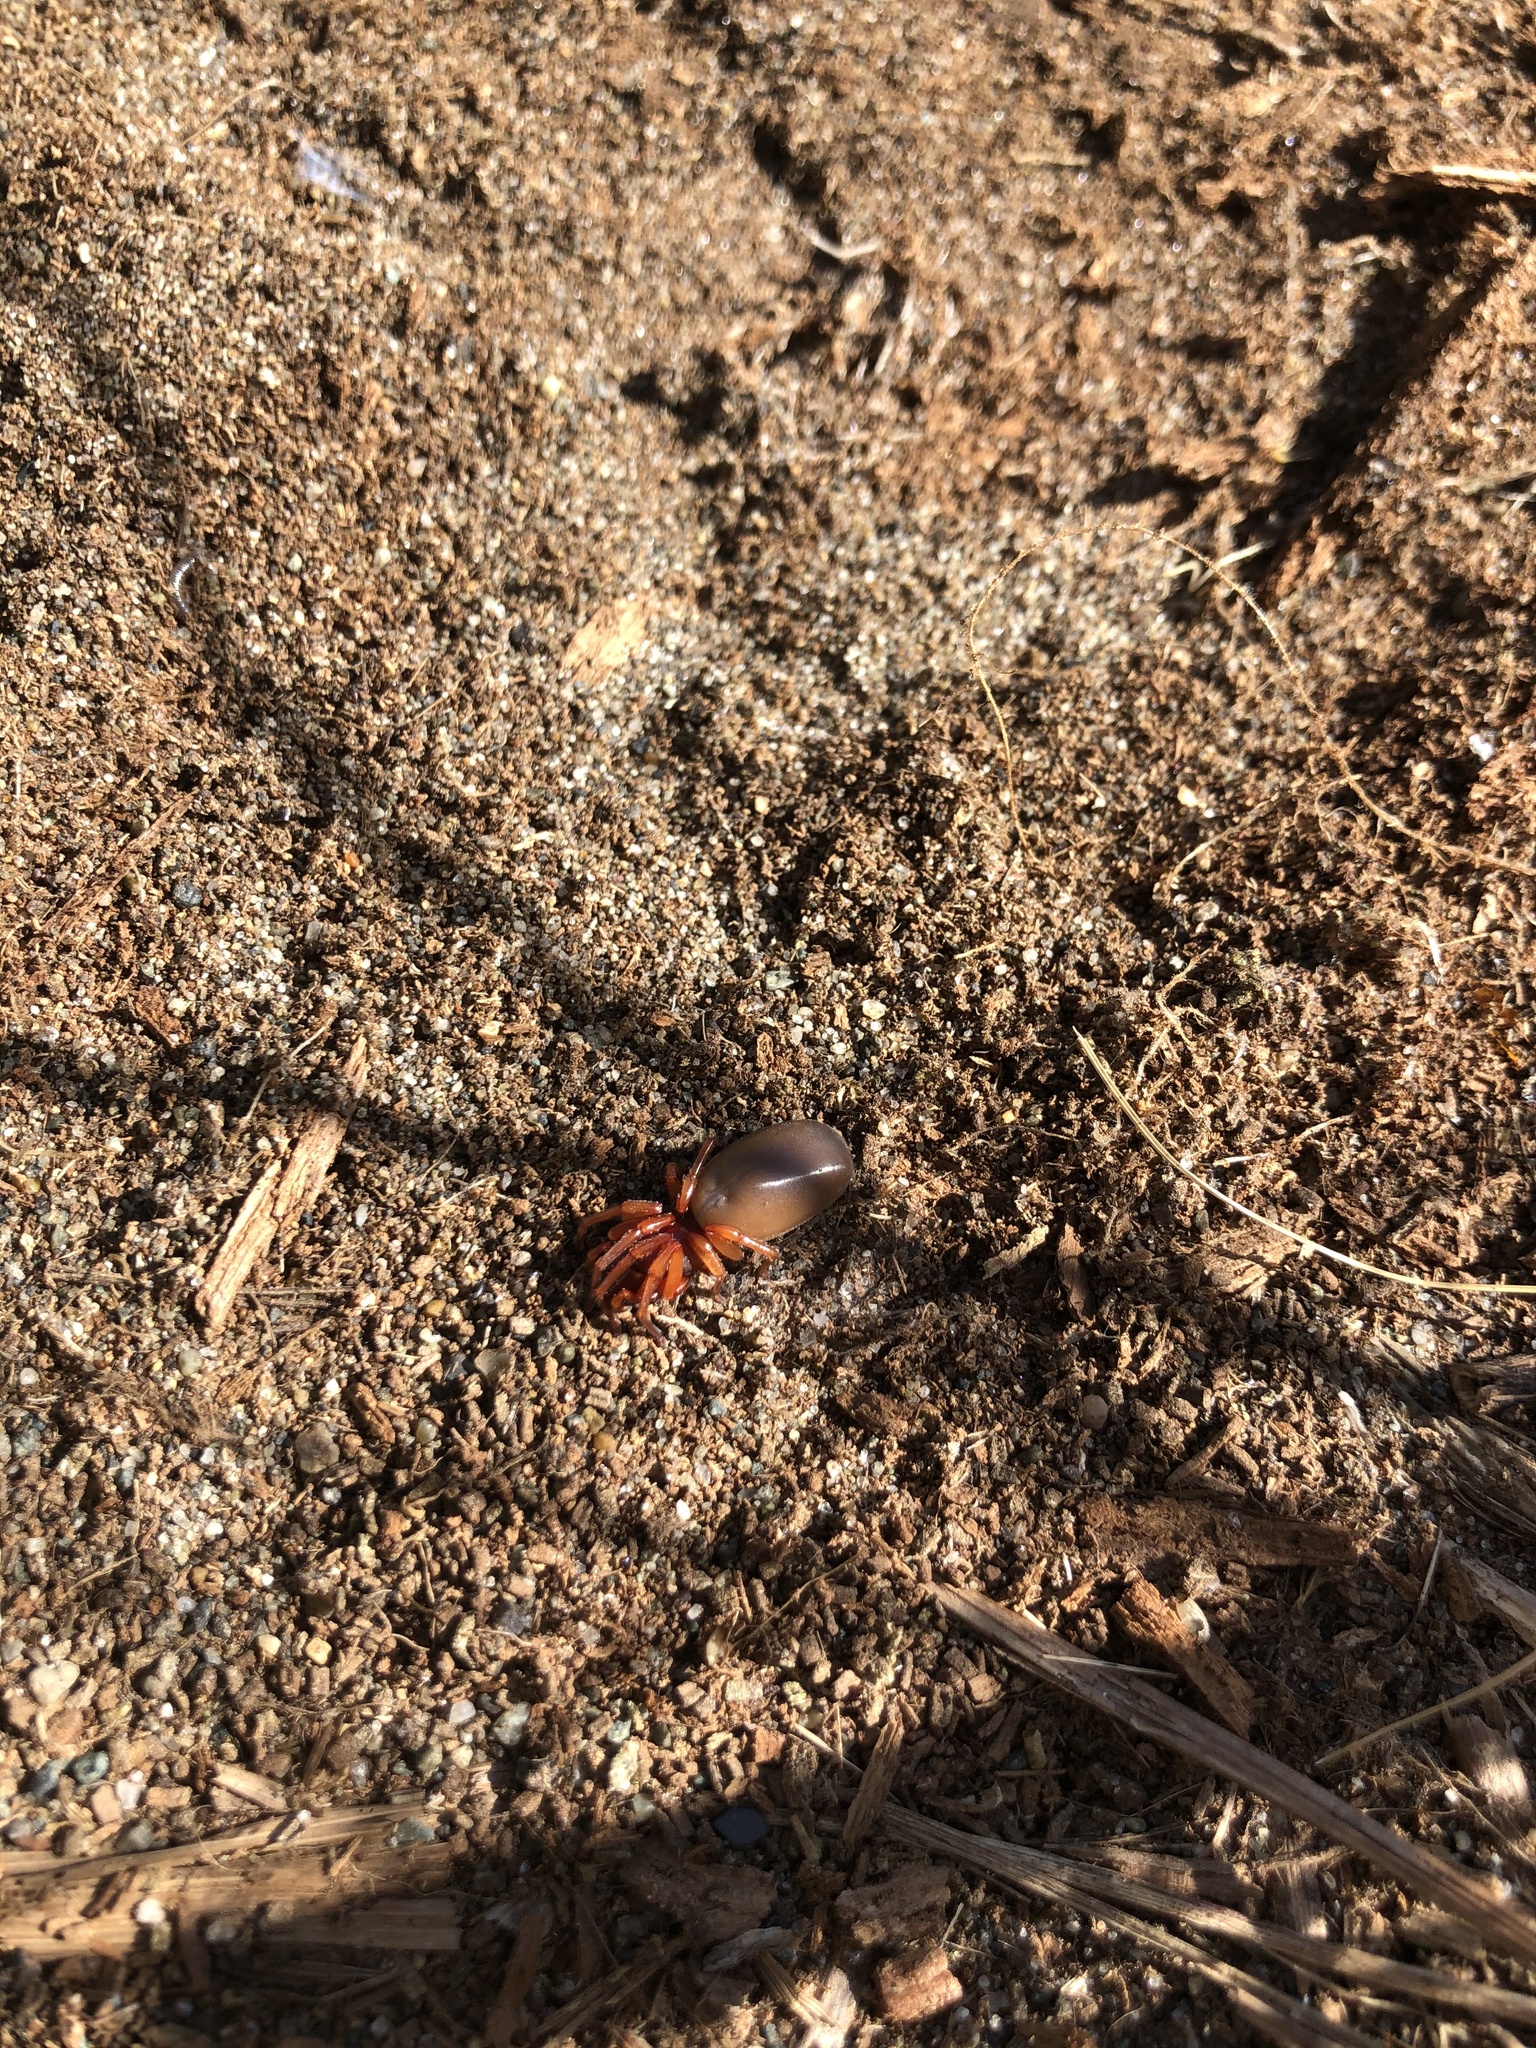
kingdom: Animalia
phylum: Arthropoda
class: Arachnida
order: Araneae
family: Dysderidae
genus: Dysdera
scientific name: Dysdera crocata
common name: Woodlouse spider
